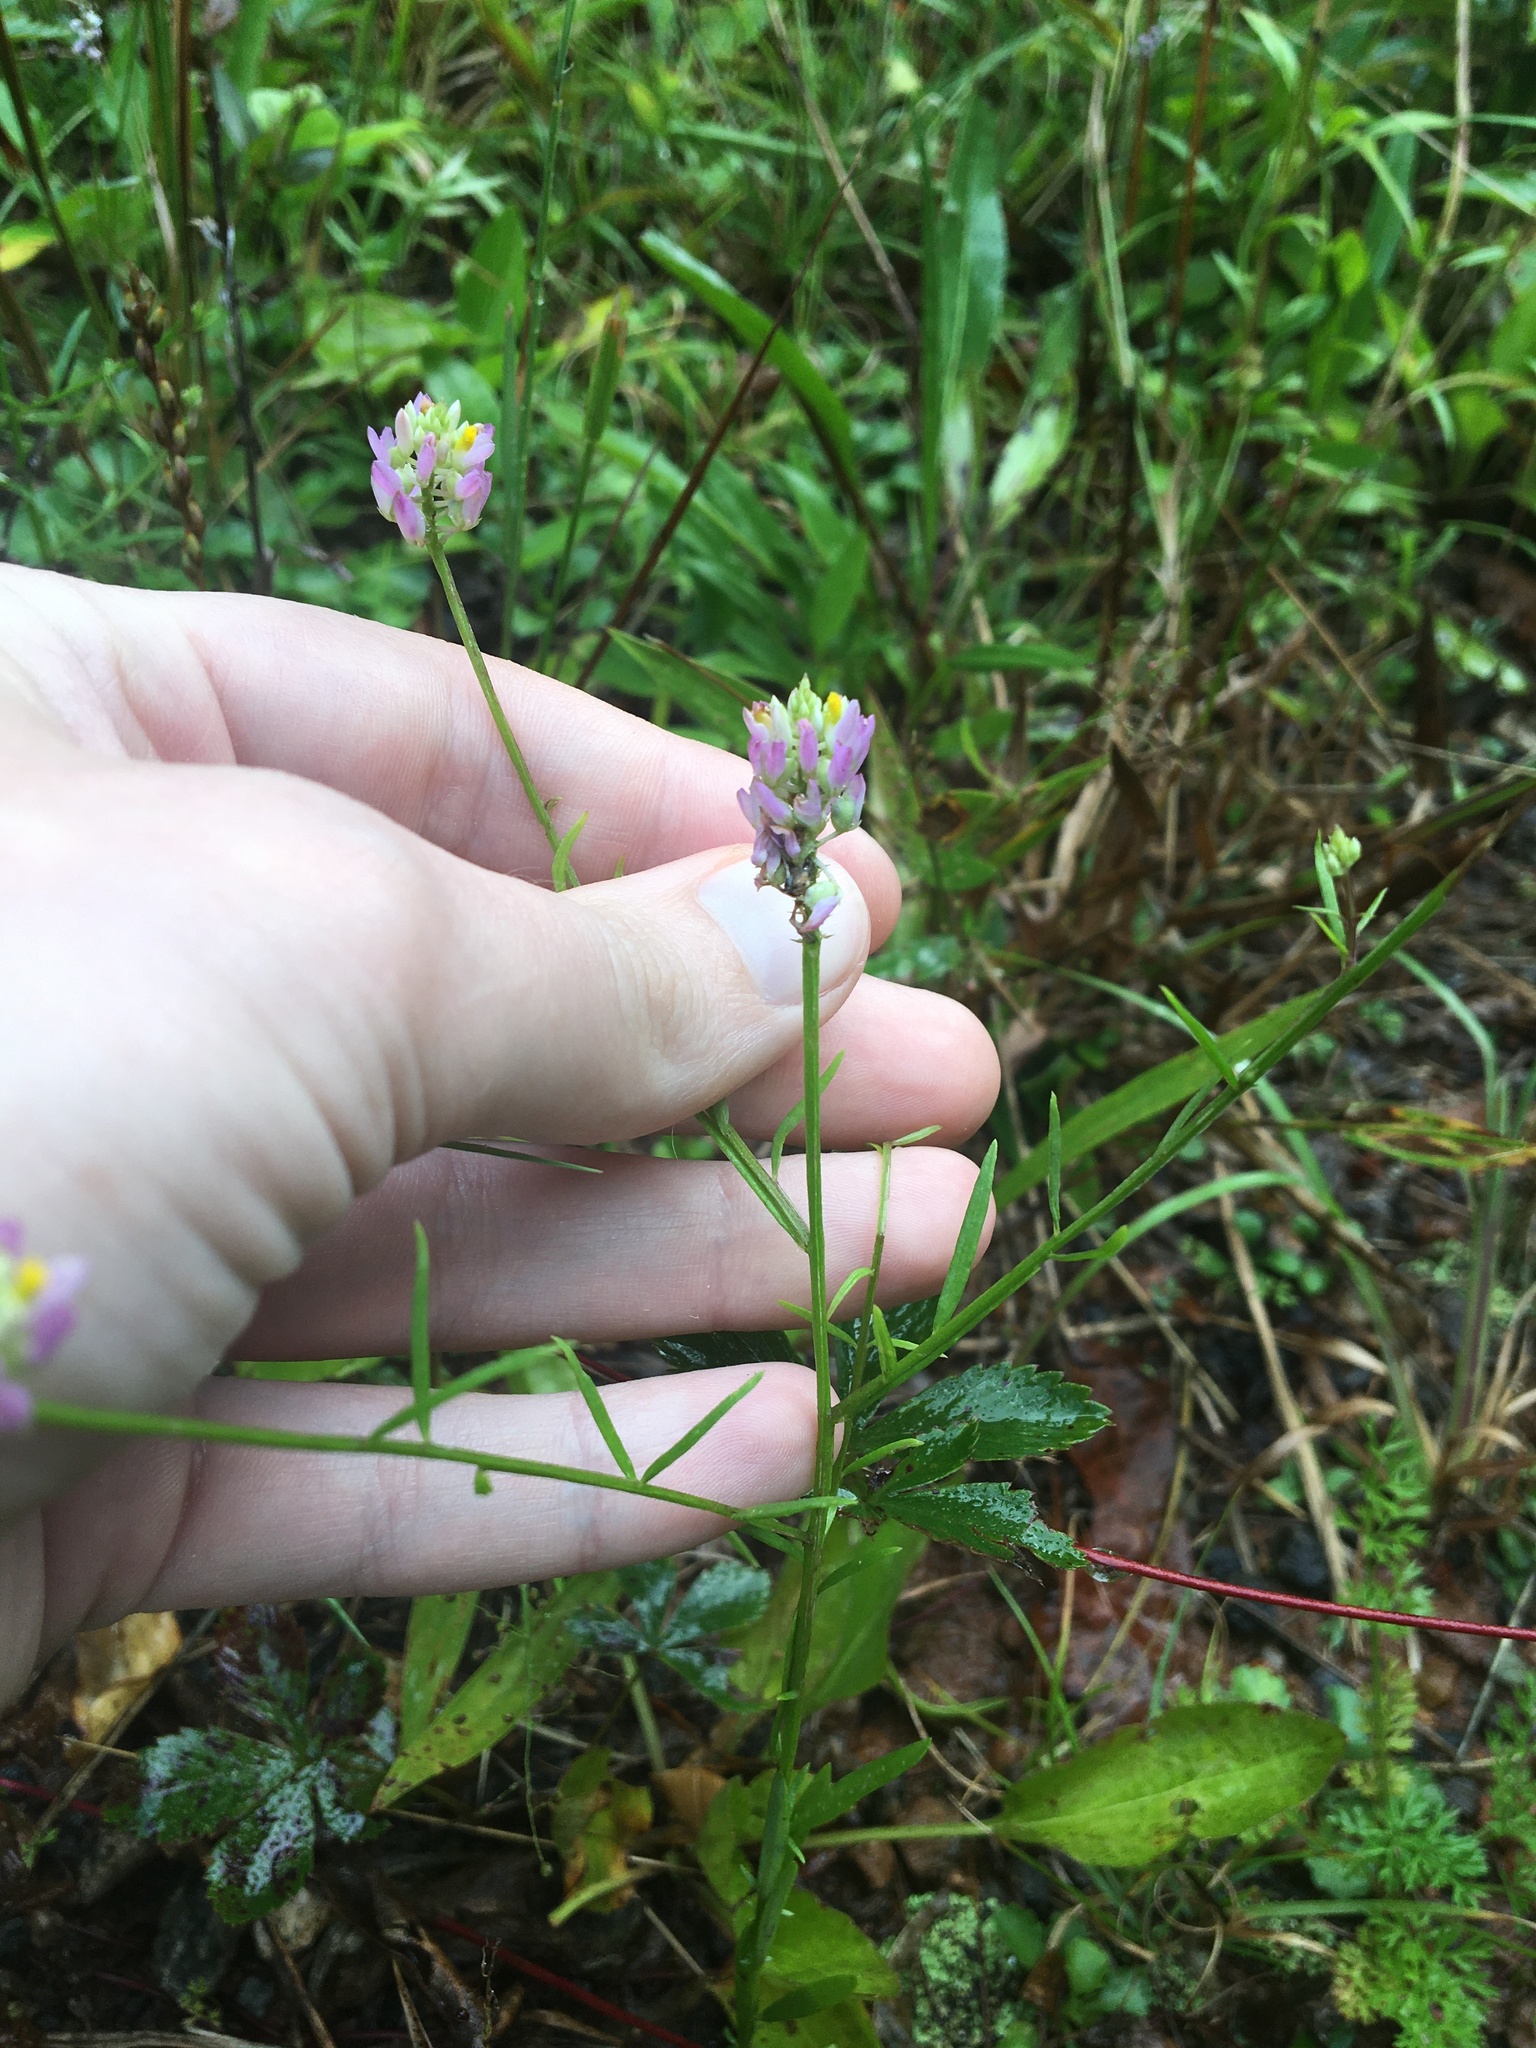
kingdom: Plantae
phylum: Tracheophyta
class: Magnoliopsida
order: Fabales
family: Polygalaceae
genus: Polygala
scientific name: Polygala curtissii
